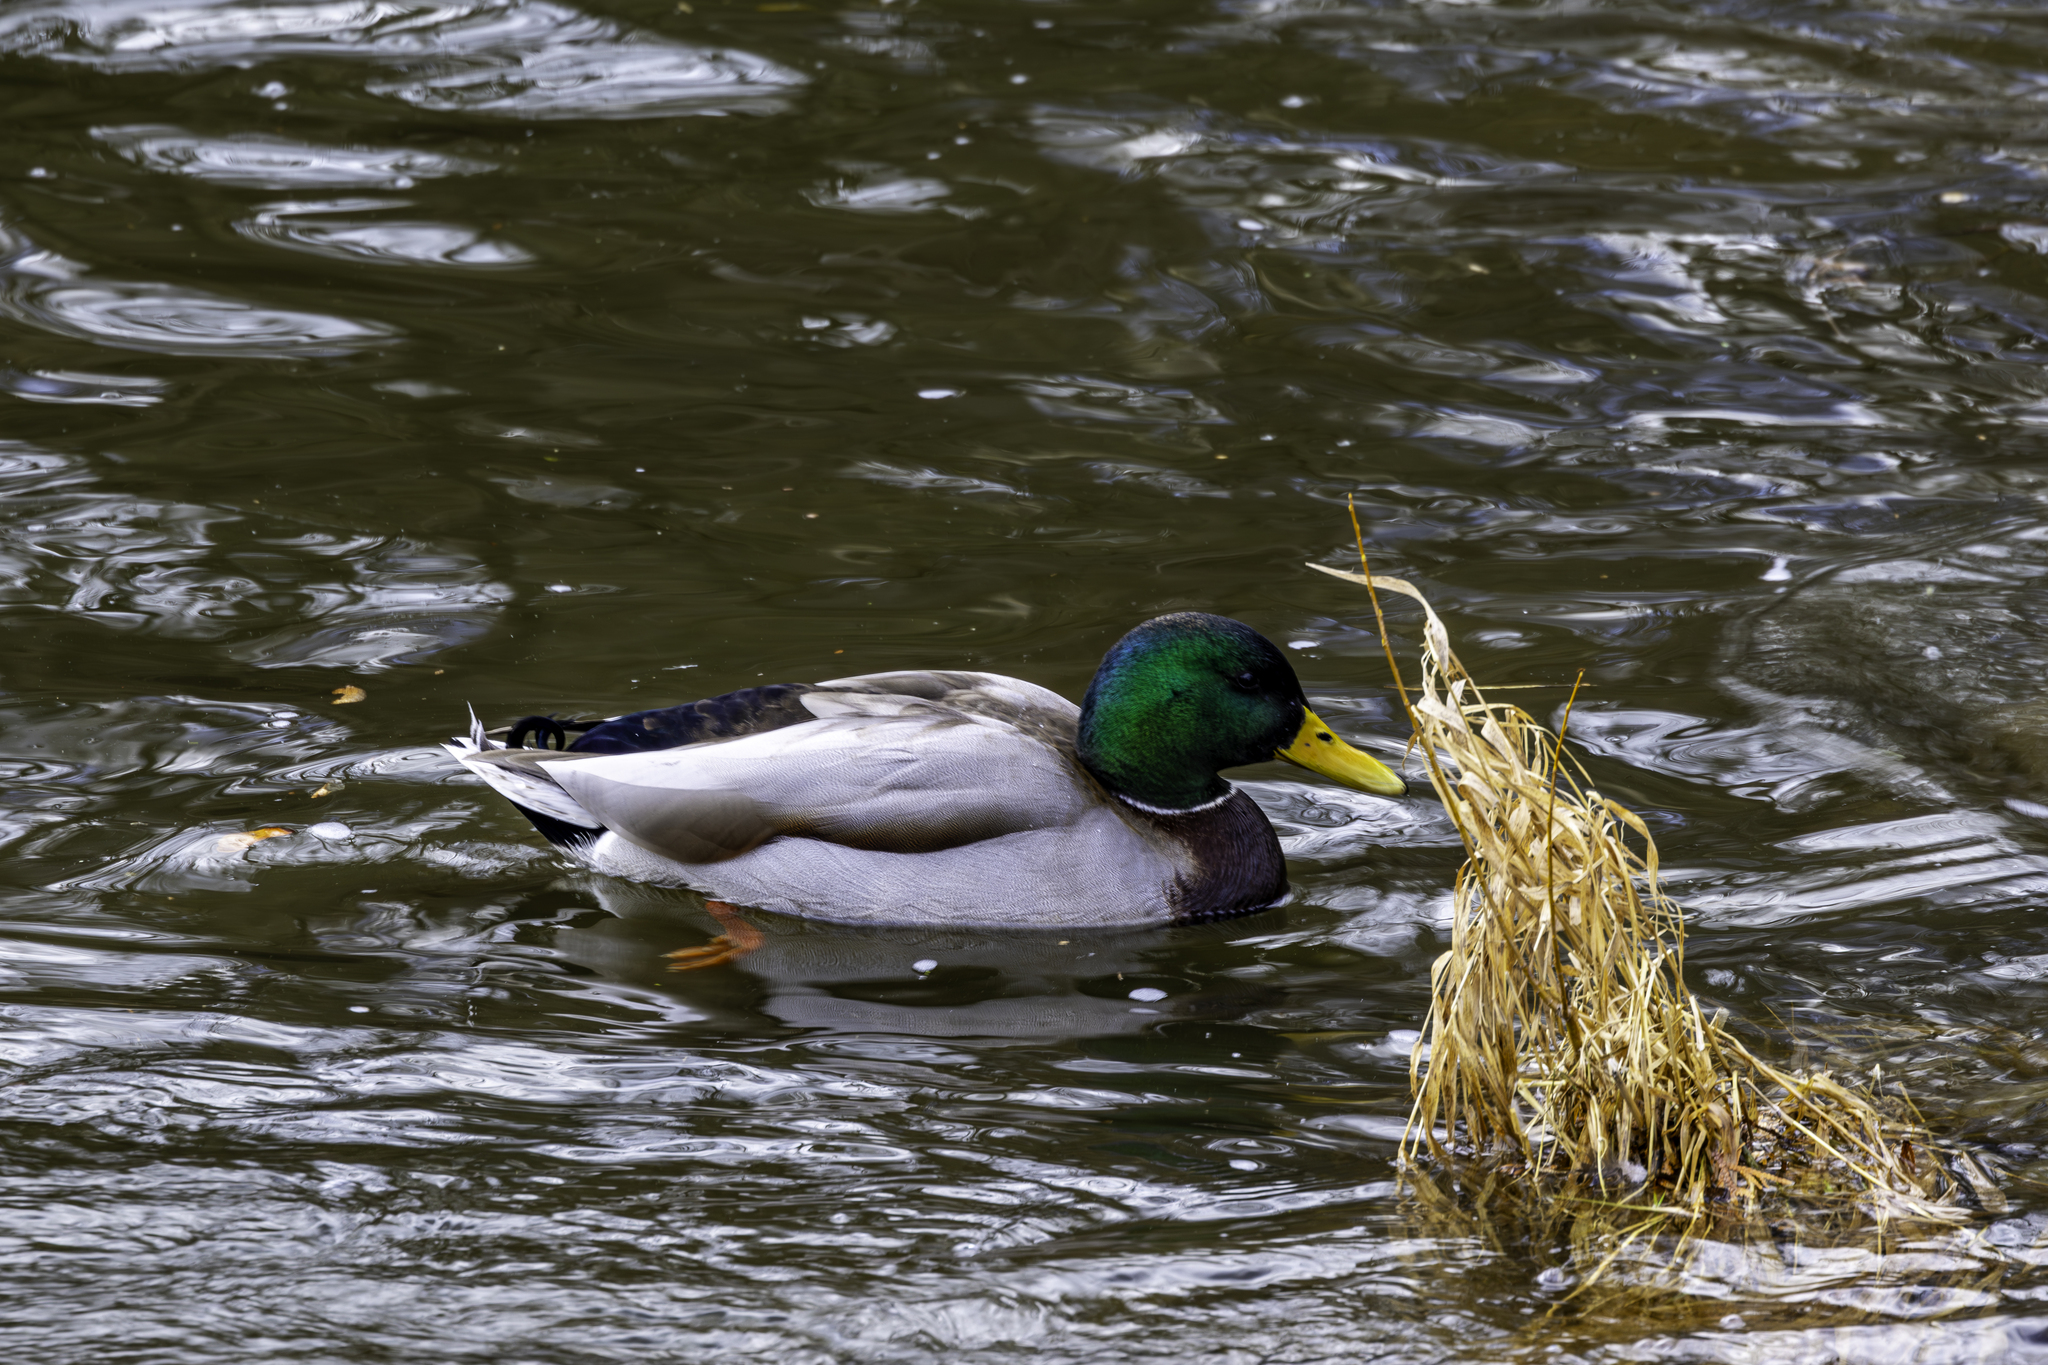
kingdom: Animalia
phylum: Chordata
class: Aves
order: Anseriformes
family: Anatidae
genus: Anas
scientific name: Anas platyrhynchos
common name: Mallard
